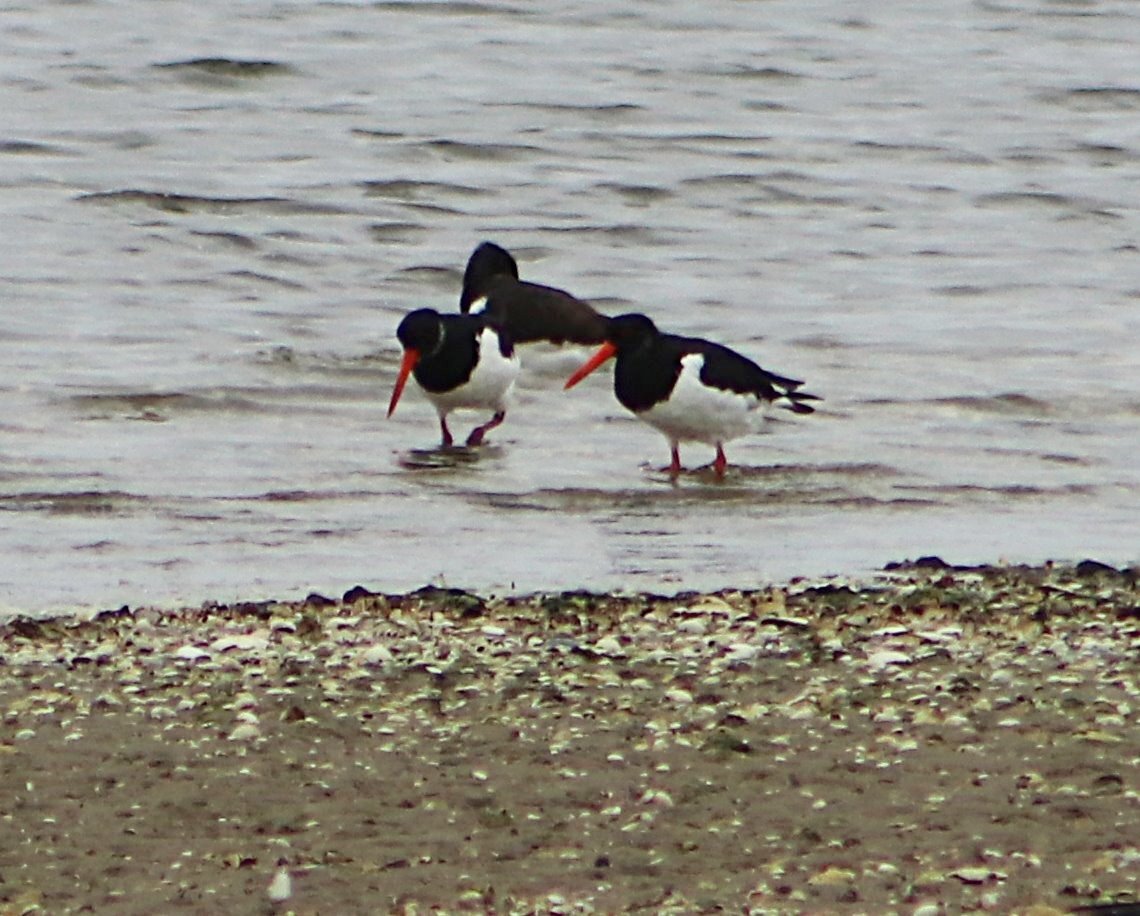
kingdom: Animalia
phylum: Chordata
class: Aves
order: Charadriiformes
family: Haematopodidae
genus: Haematopus
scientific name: Haematopus ostralegus
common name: Eurasian oystercatcher
